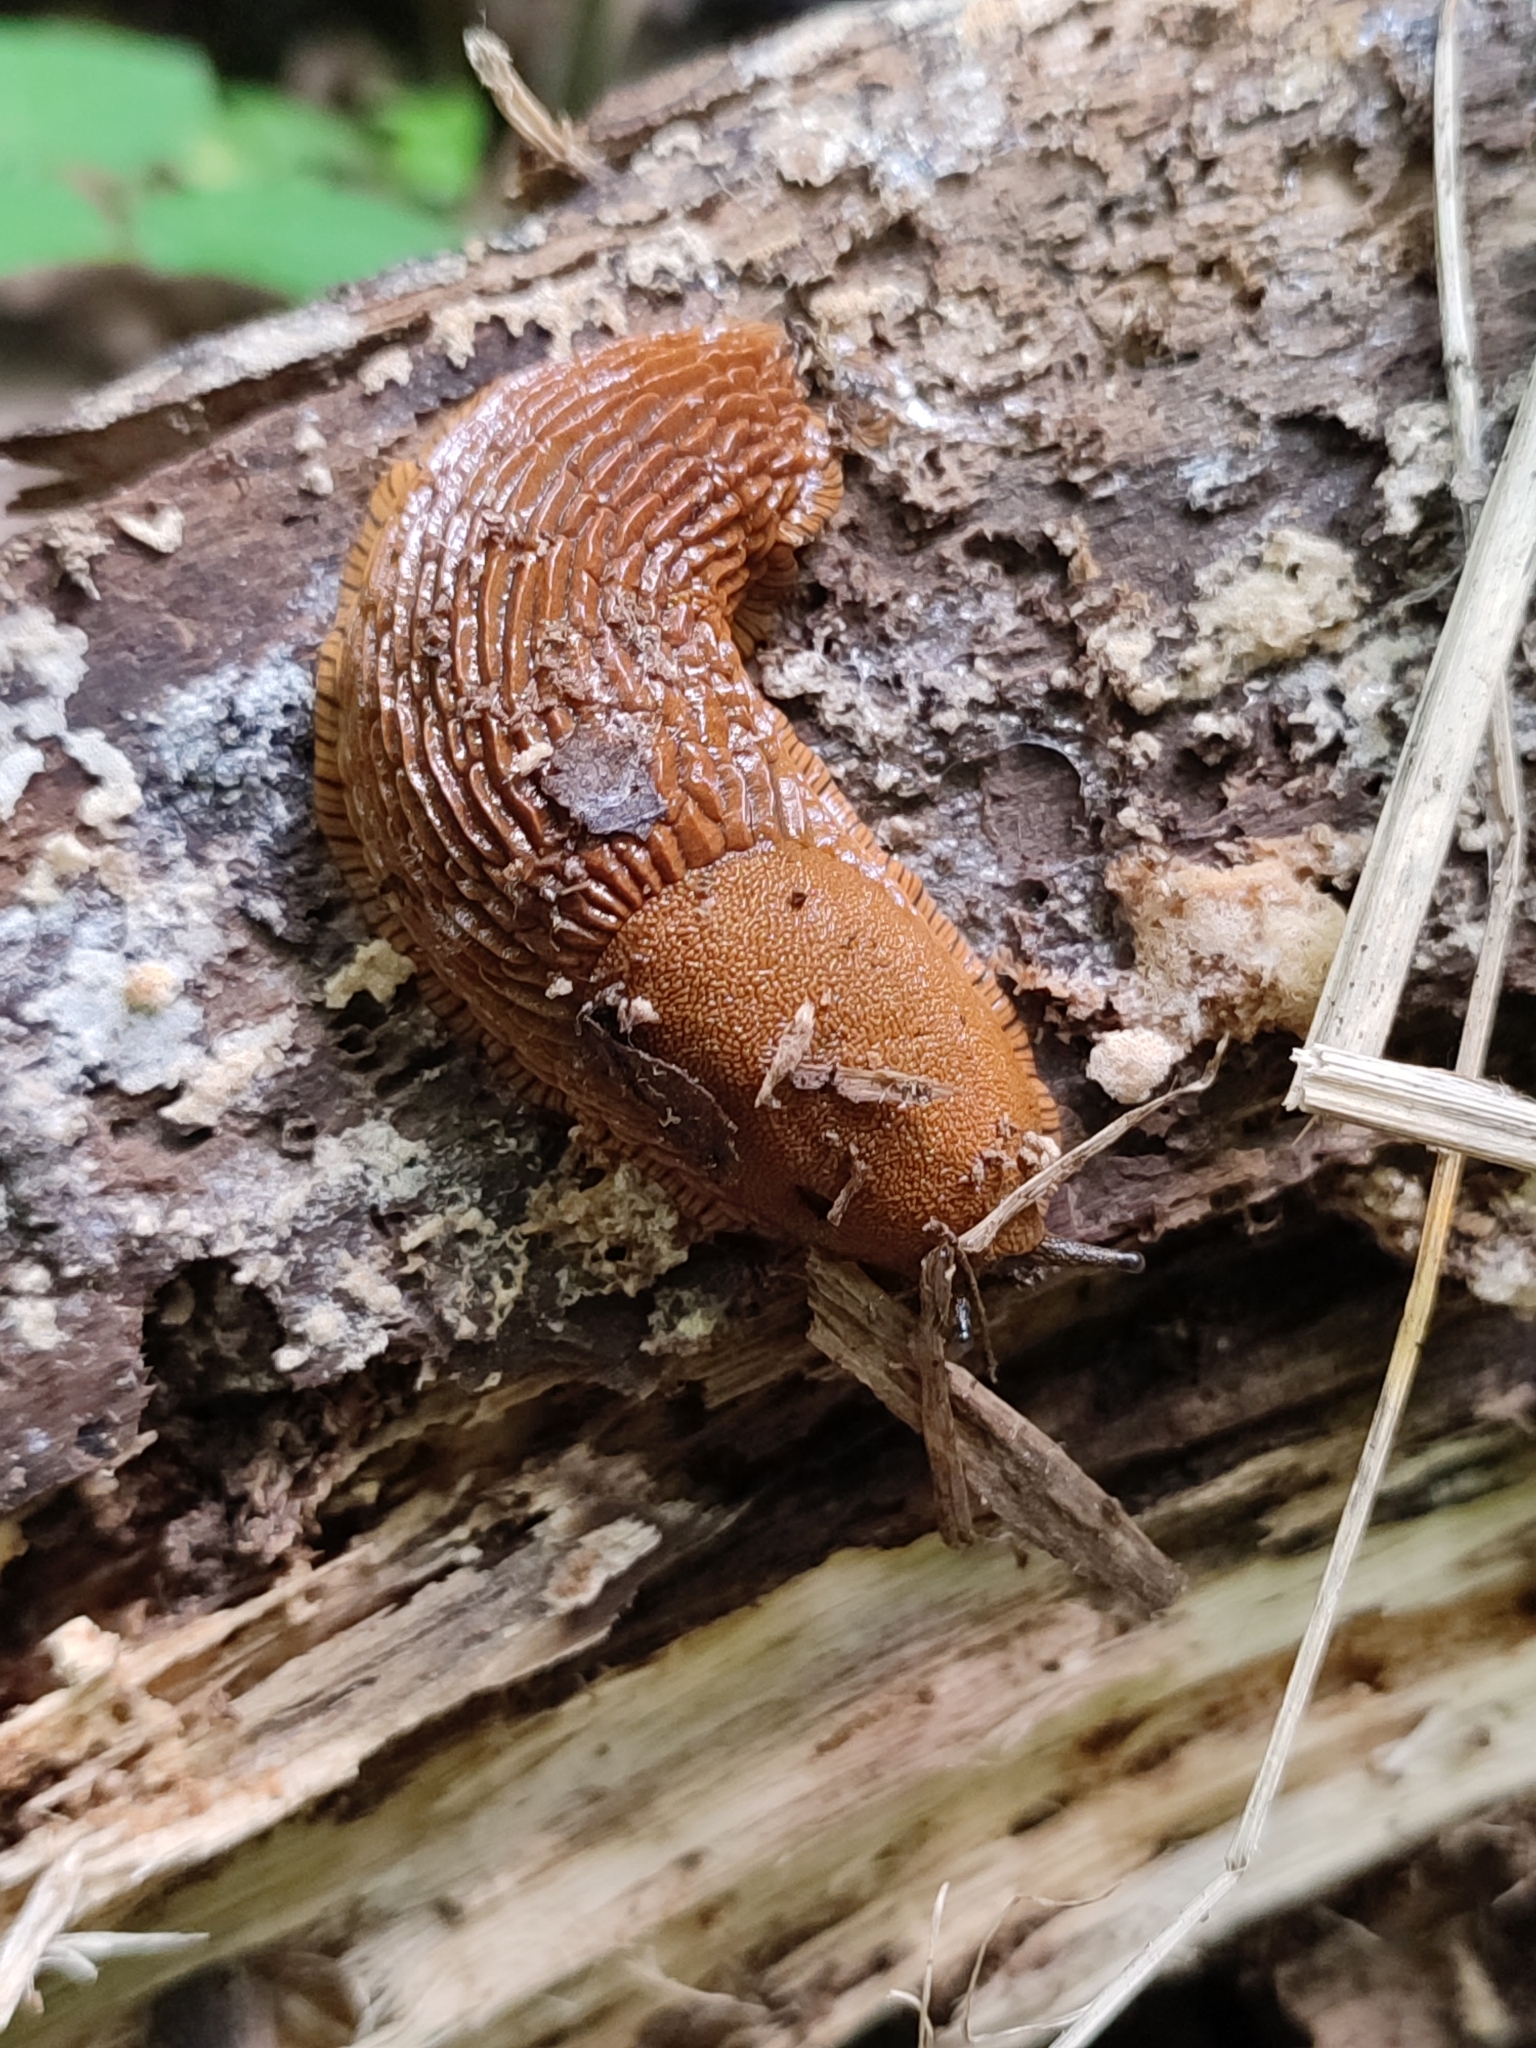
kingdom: Animalia
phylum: Mollusca
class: Gastropoda
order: Stylommatophora
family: Arionidae
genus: Arion
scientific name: Arion vulgaris
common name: Lusitanian slug
